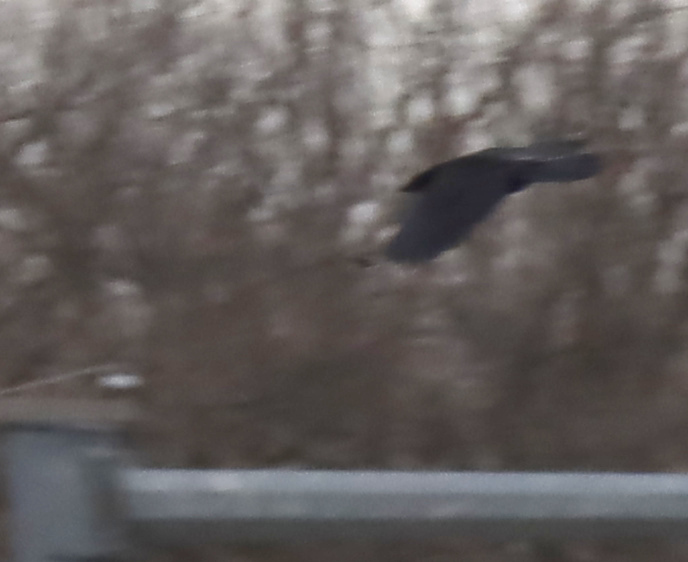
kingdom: Animalia
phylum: Chordata
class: Aves
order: Passeriformes
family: Corvidae
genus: Corvus
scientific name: Corvus brachyrhynchos
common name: American crow
